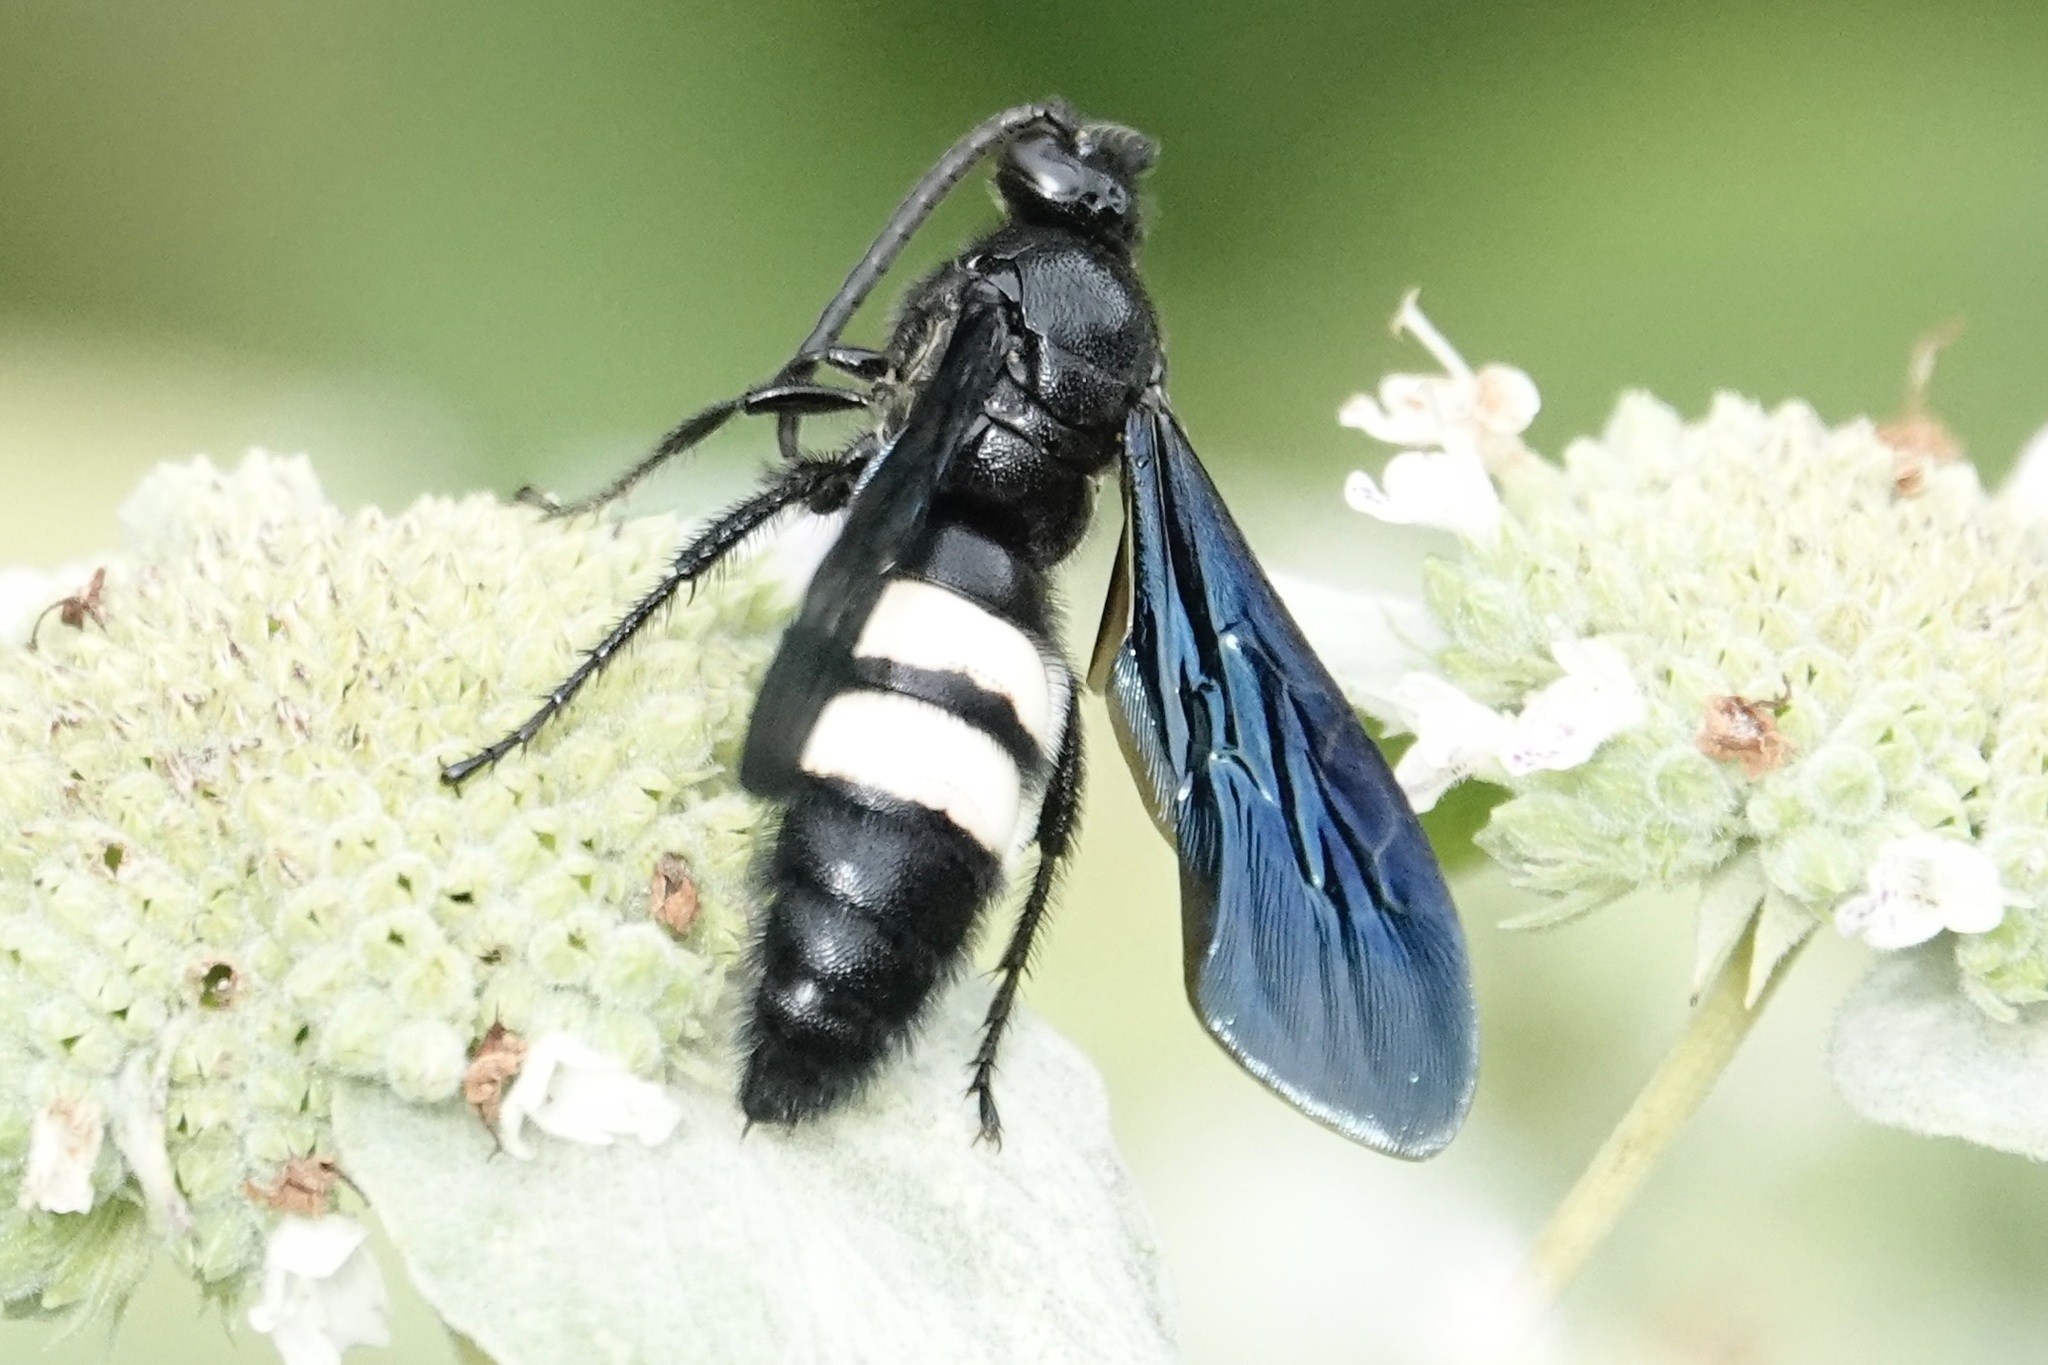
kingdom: Animalia
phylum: Arthropoda
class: Insecta
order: Hymenoptera
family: Scoliidae
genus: Scolia
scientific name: Scolia bicincta
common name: Double-banded scoliid wasp
